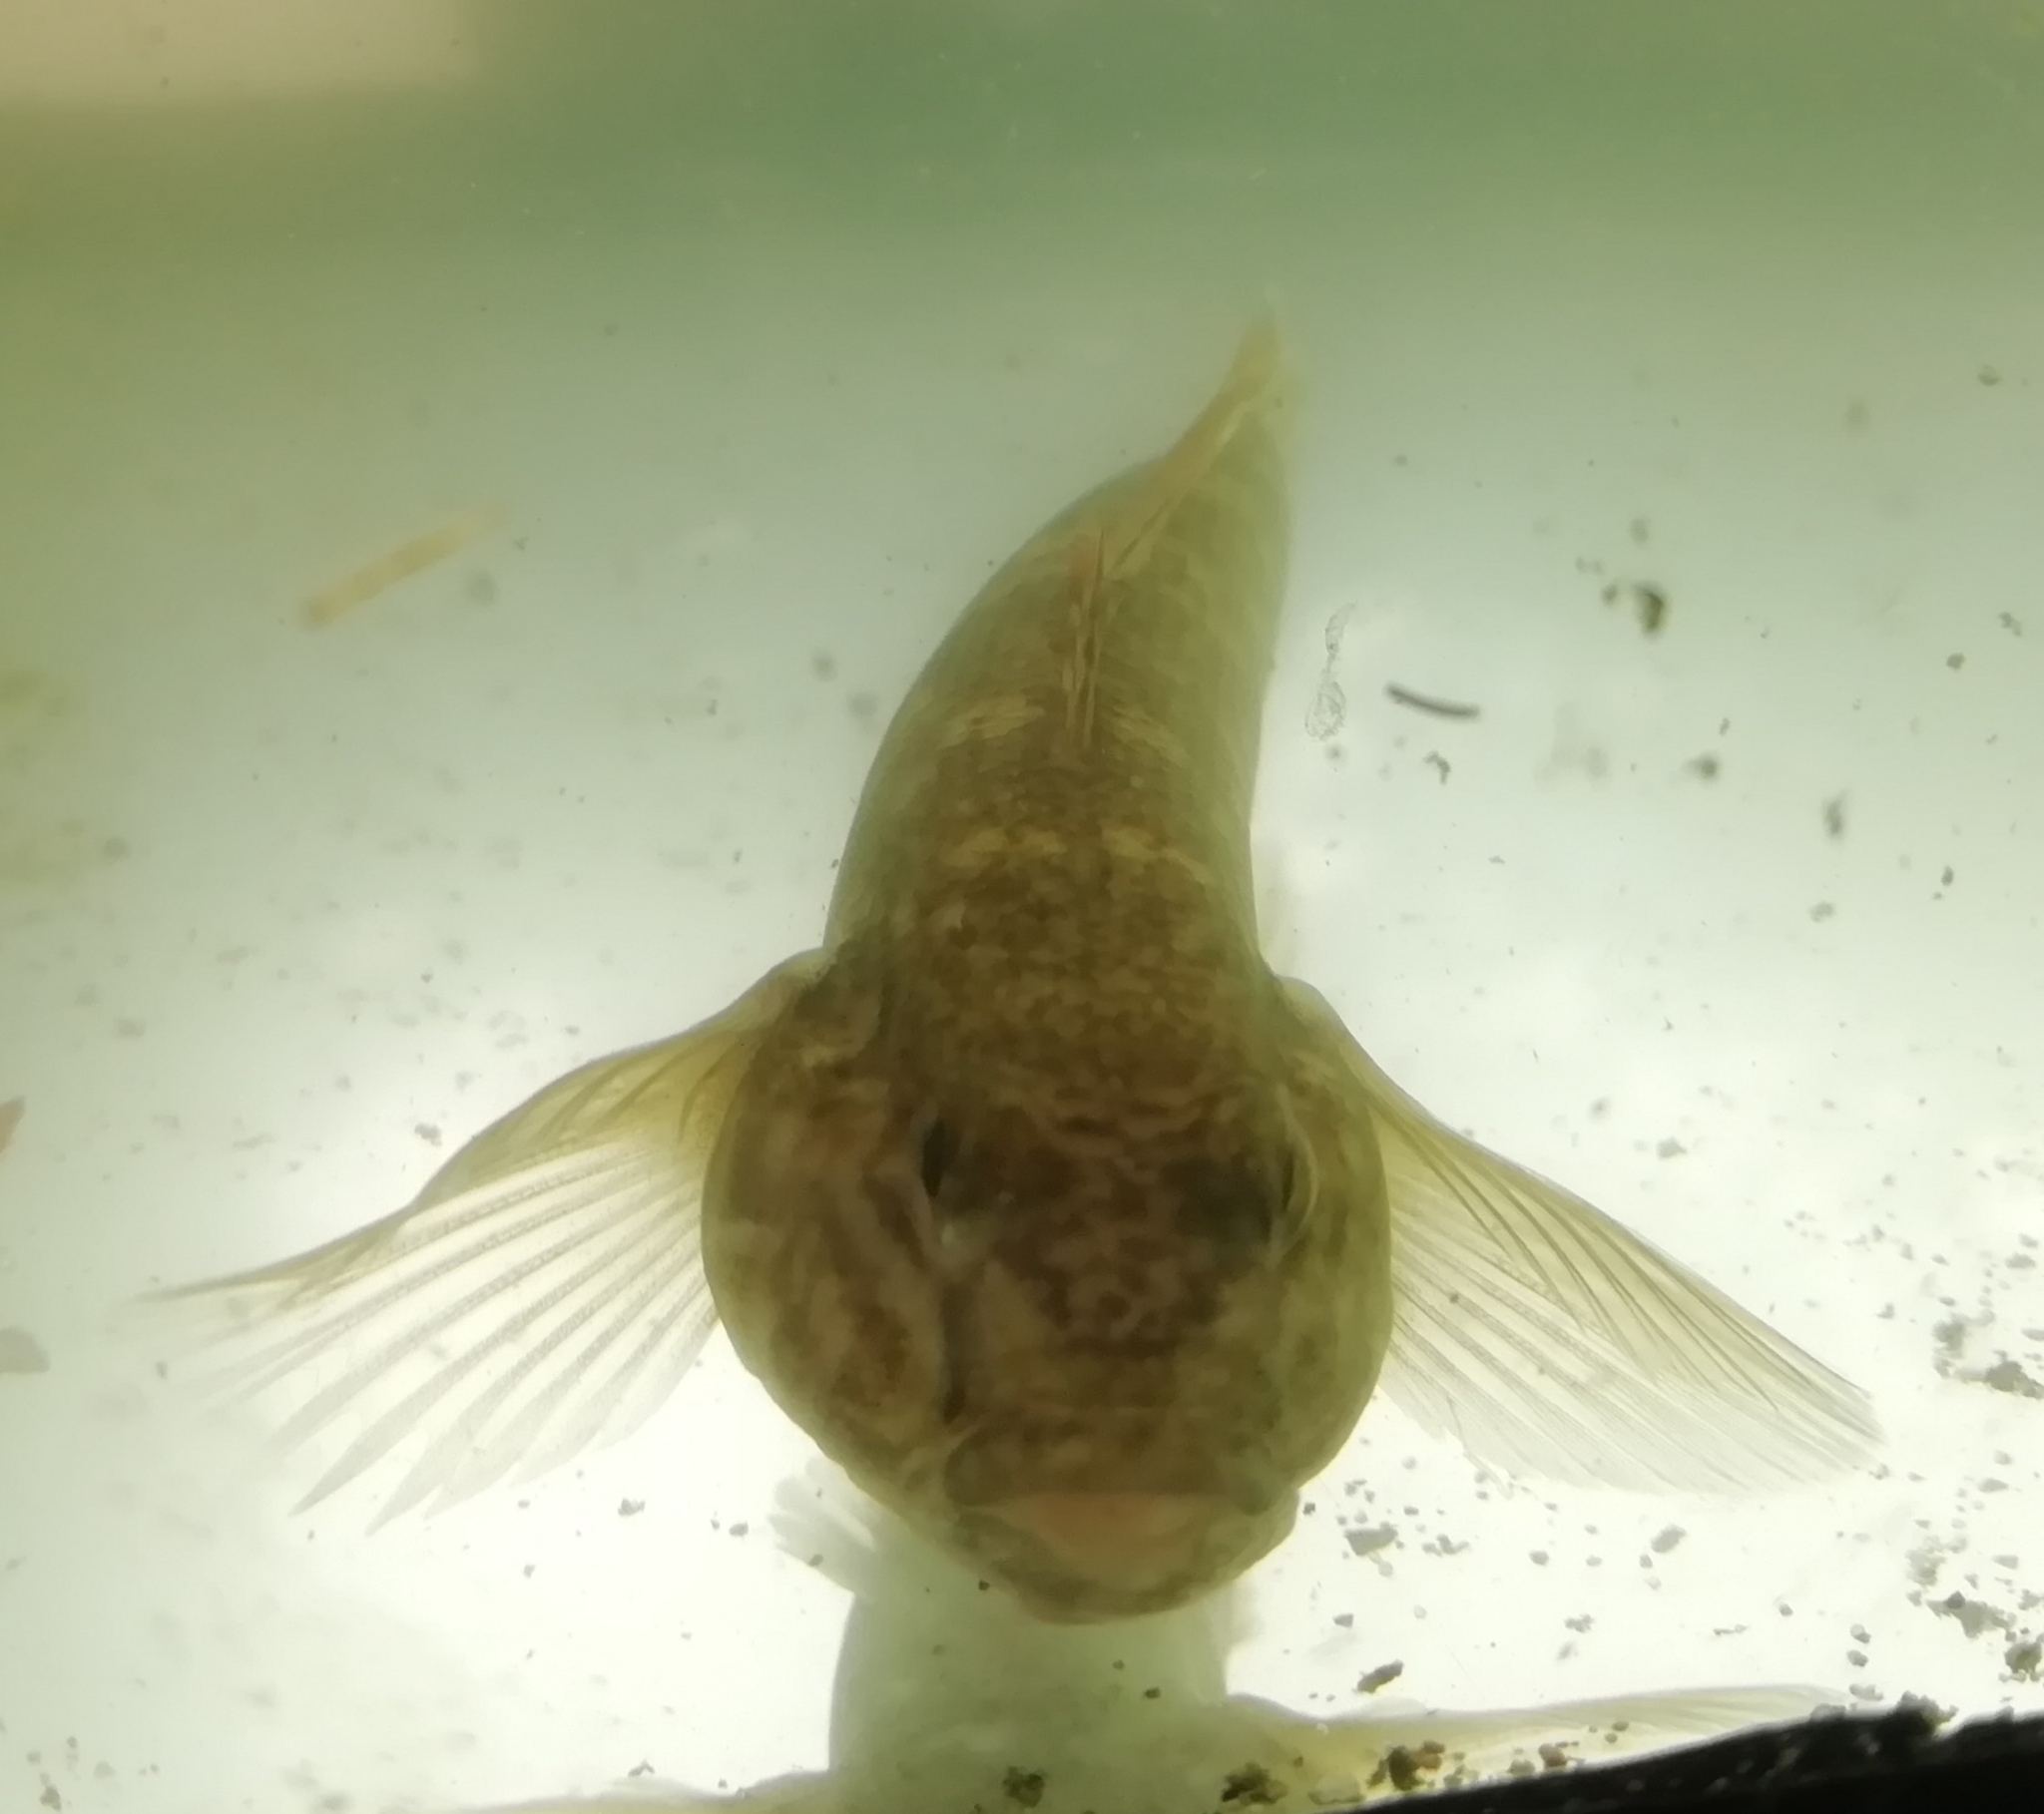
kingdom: Animalia
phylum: Chordata
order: Perciformes
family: Gobiidae
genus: Neogobius
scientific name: Neogobius melanostomus
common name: Round goby
